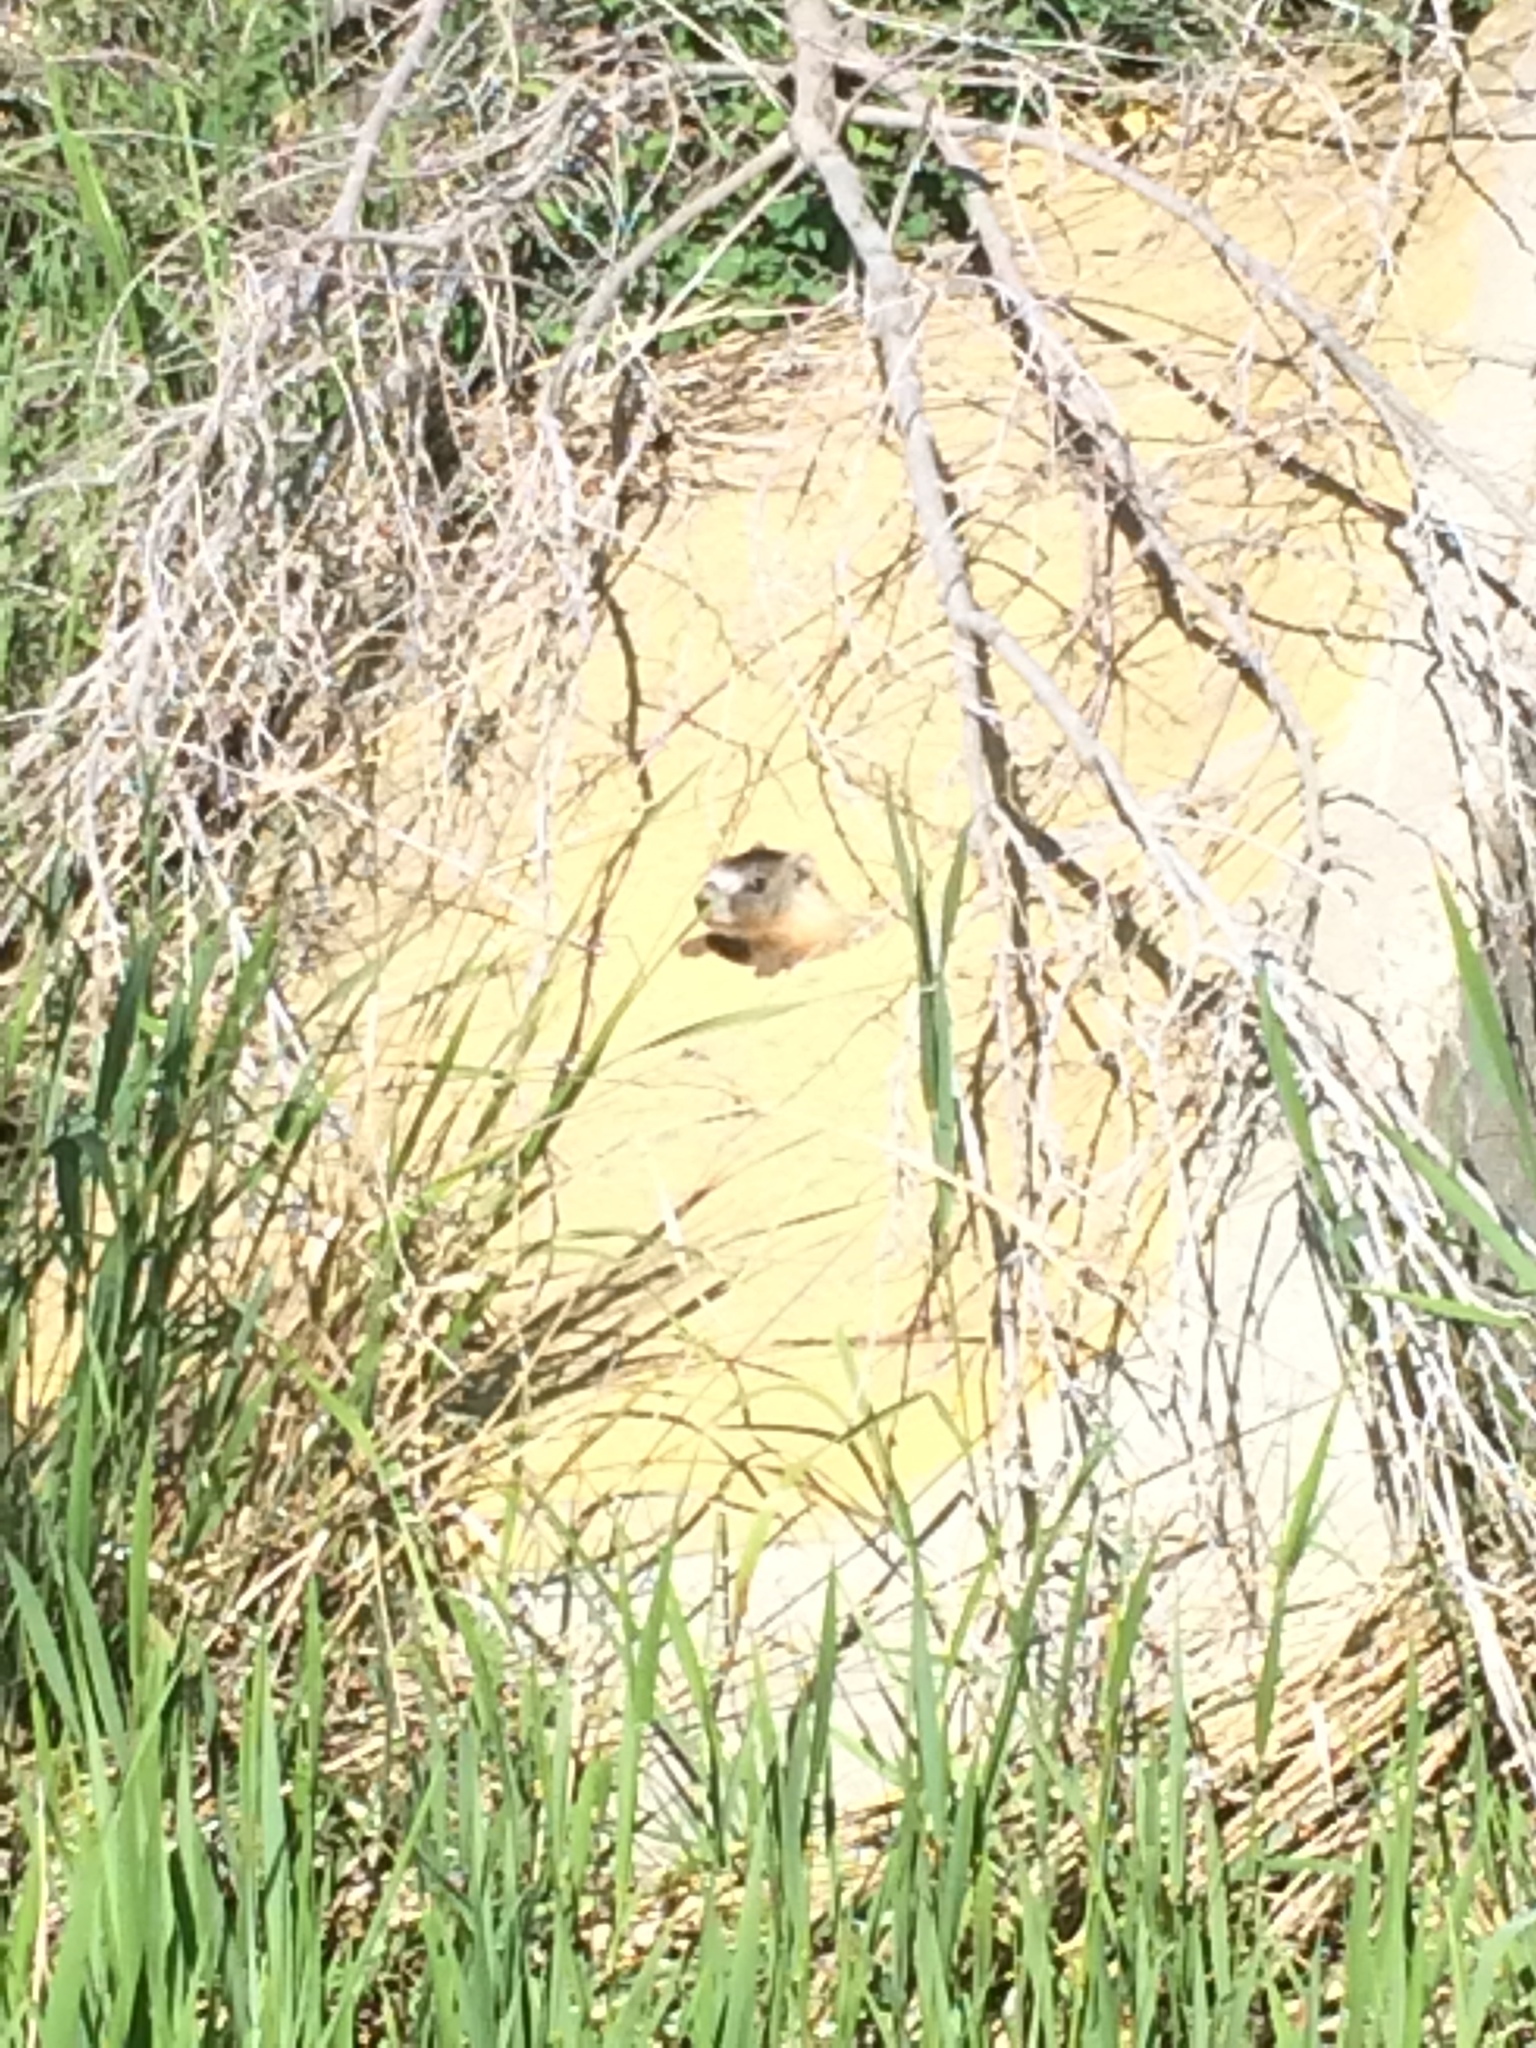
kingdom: Animalia
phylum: Chordata
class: Mammalia
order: Rodentia
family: Sciuridae
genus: Marmota
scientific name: Marmota flaviventris
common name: Yellow-bellied marmot
